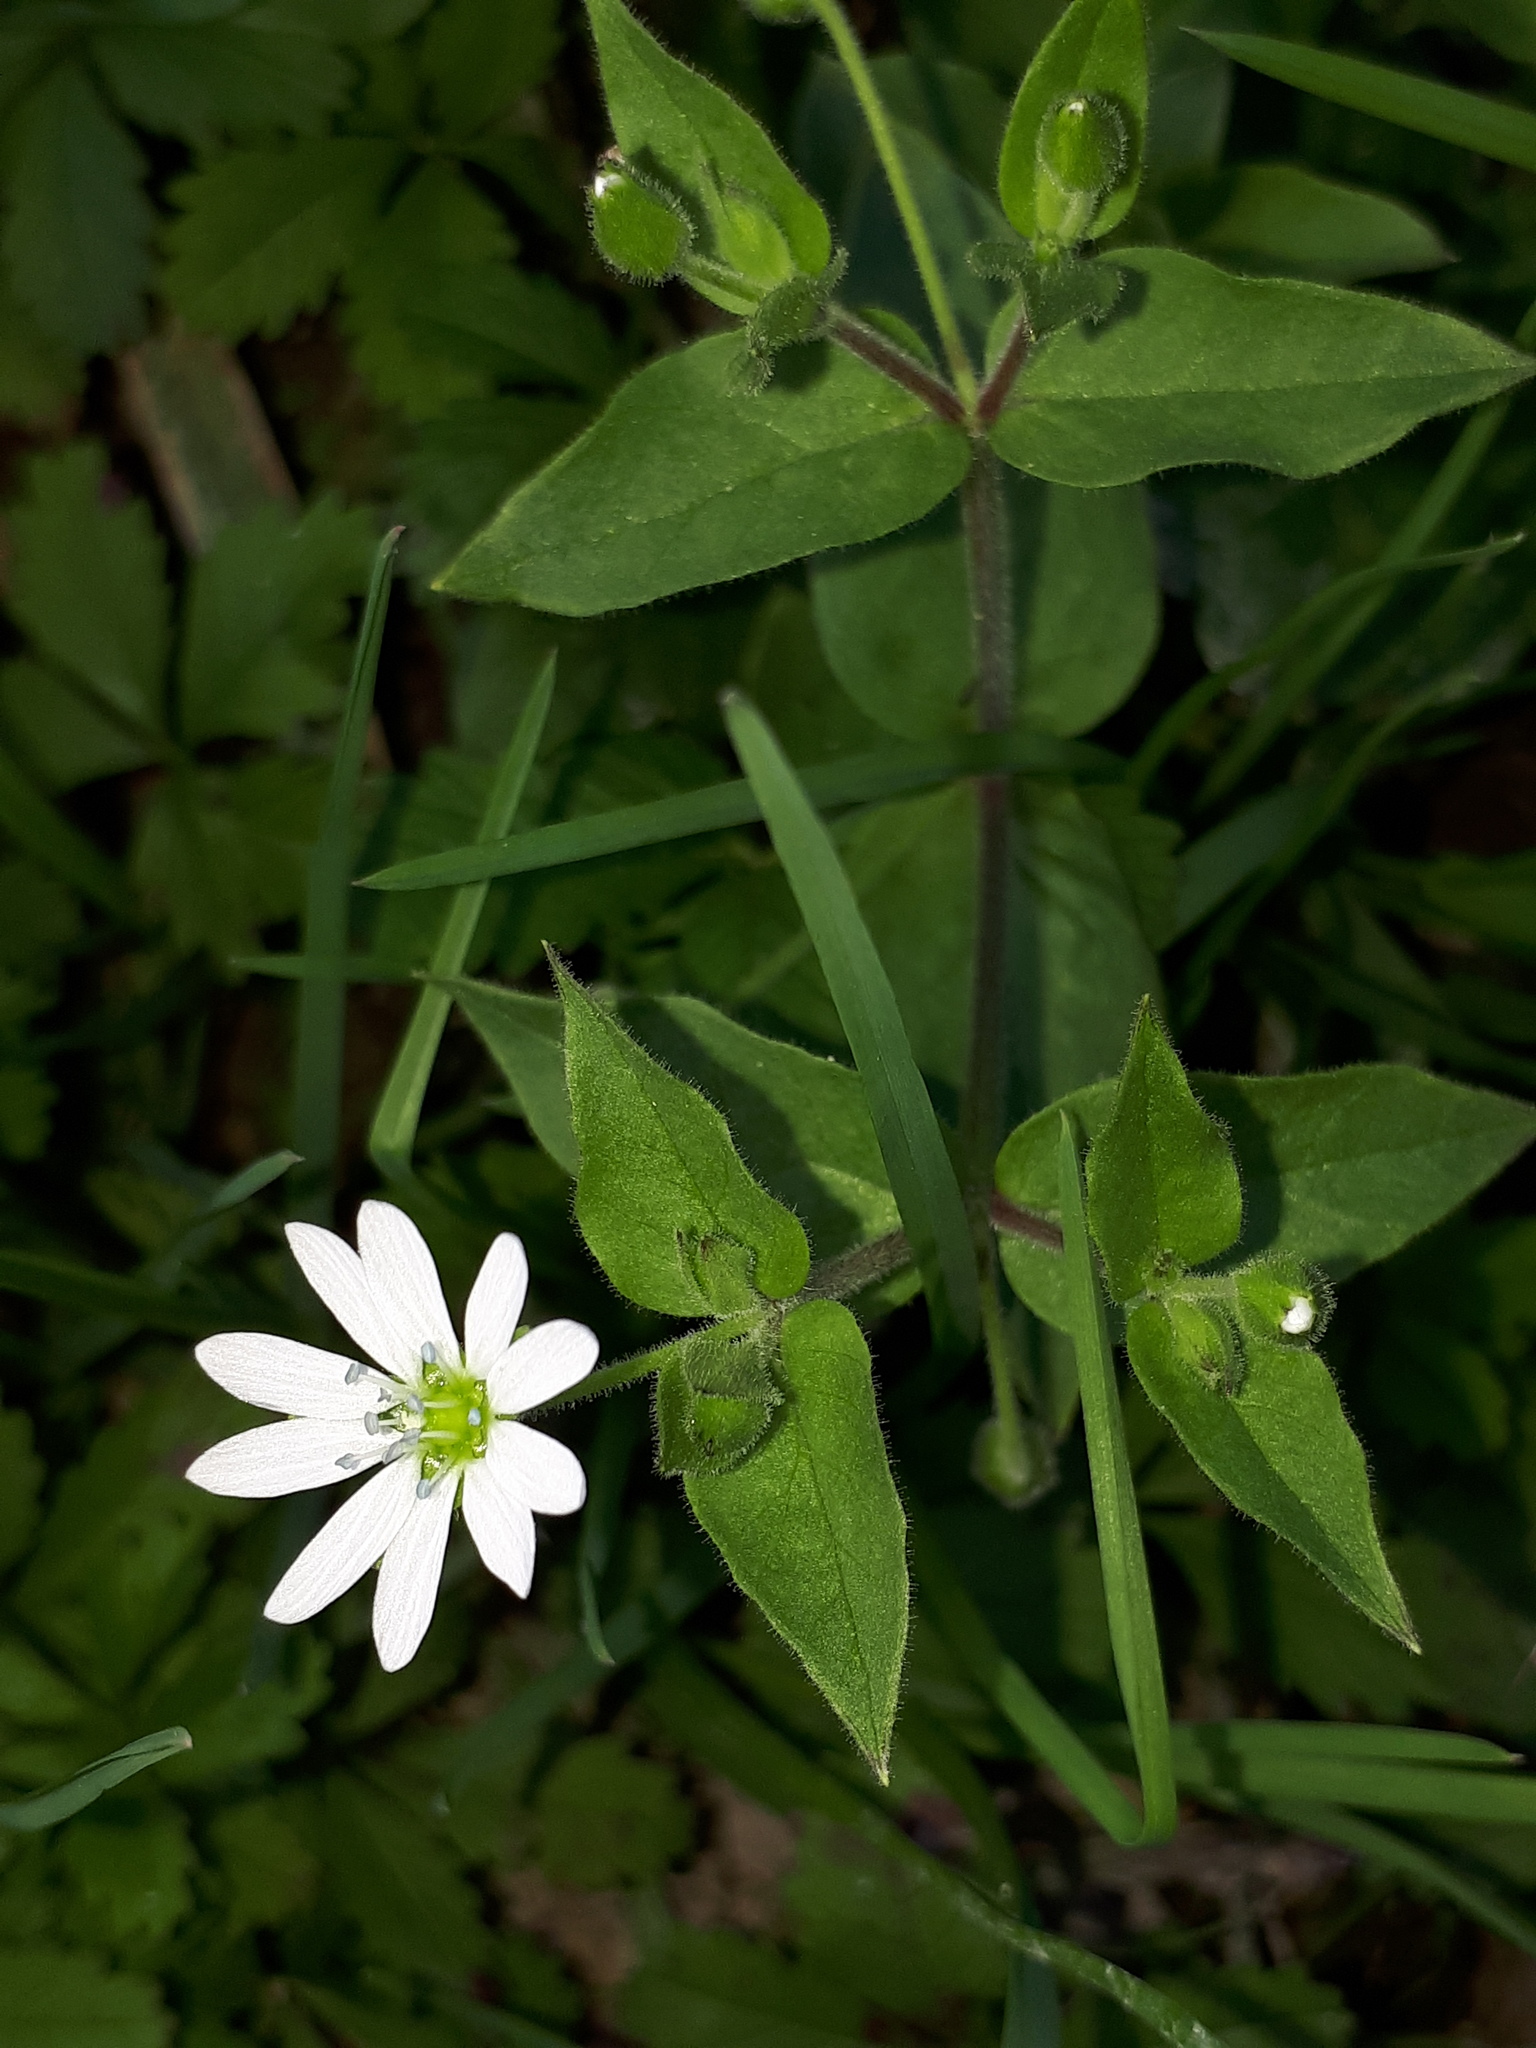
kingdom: Plantae
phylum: Tracheophyta
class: Magnoliopsida
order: Caryophyllales
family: Caryophyllaceae
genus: Stellaria
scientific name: Stellaria aquatica
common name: Water chickweed
